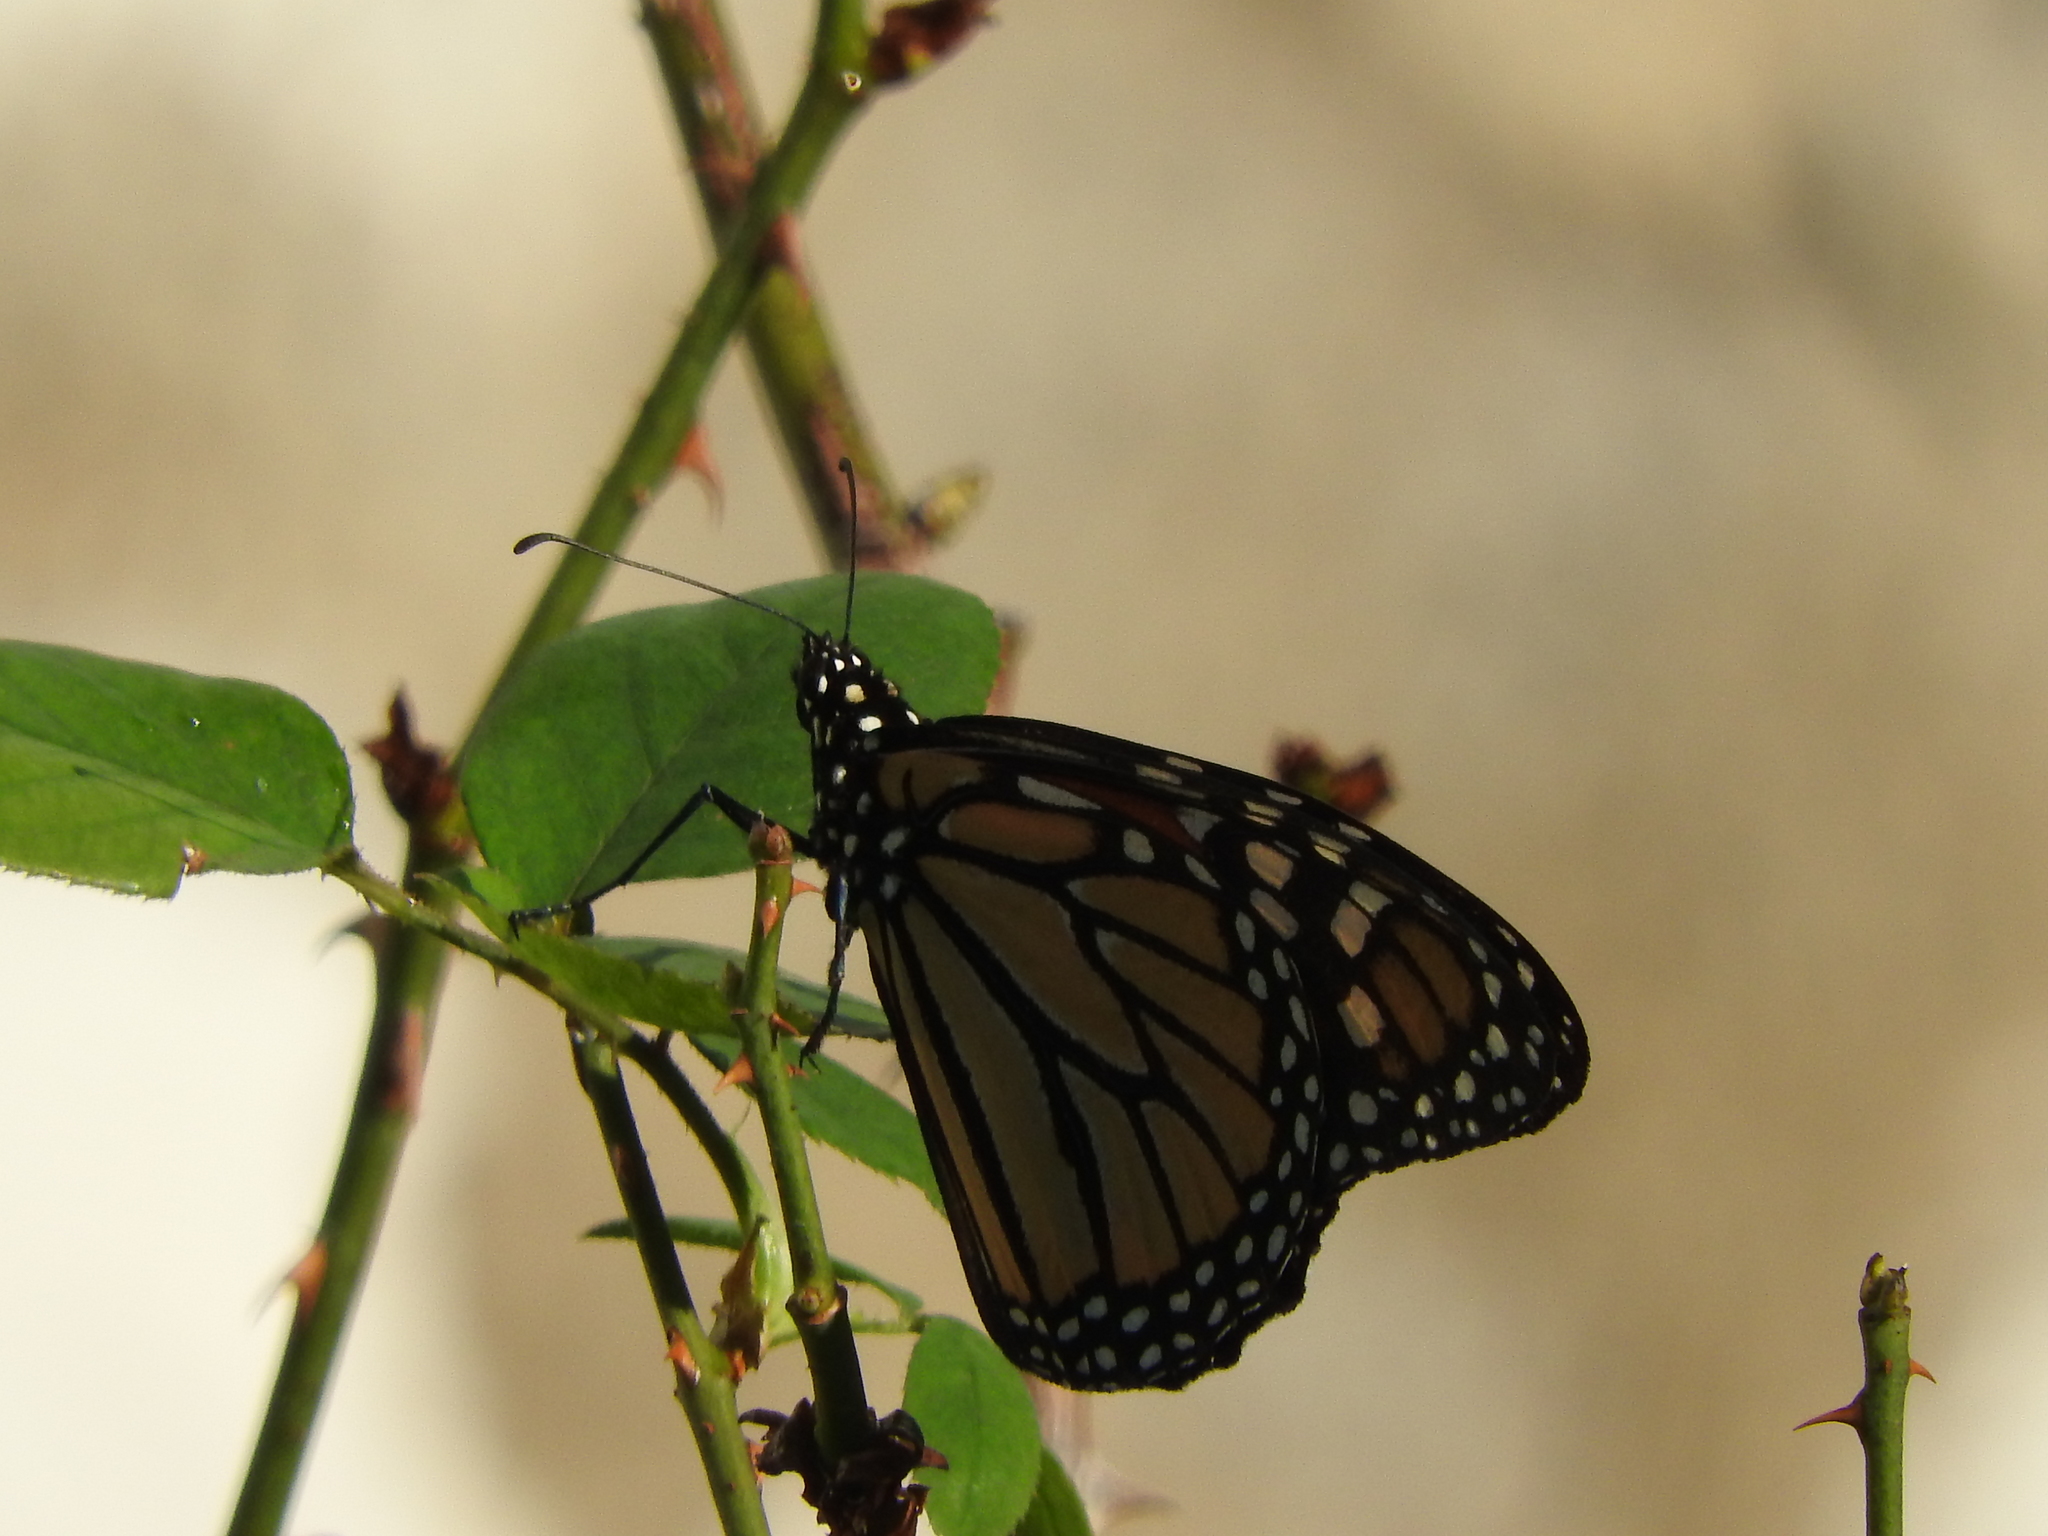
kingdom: Animalia
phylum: Arthropoda
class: Insecta
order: Lepidoptera
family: Nymphalidae
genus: Danaus
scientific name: Danaus plexippus
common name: Monarch
